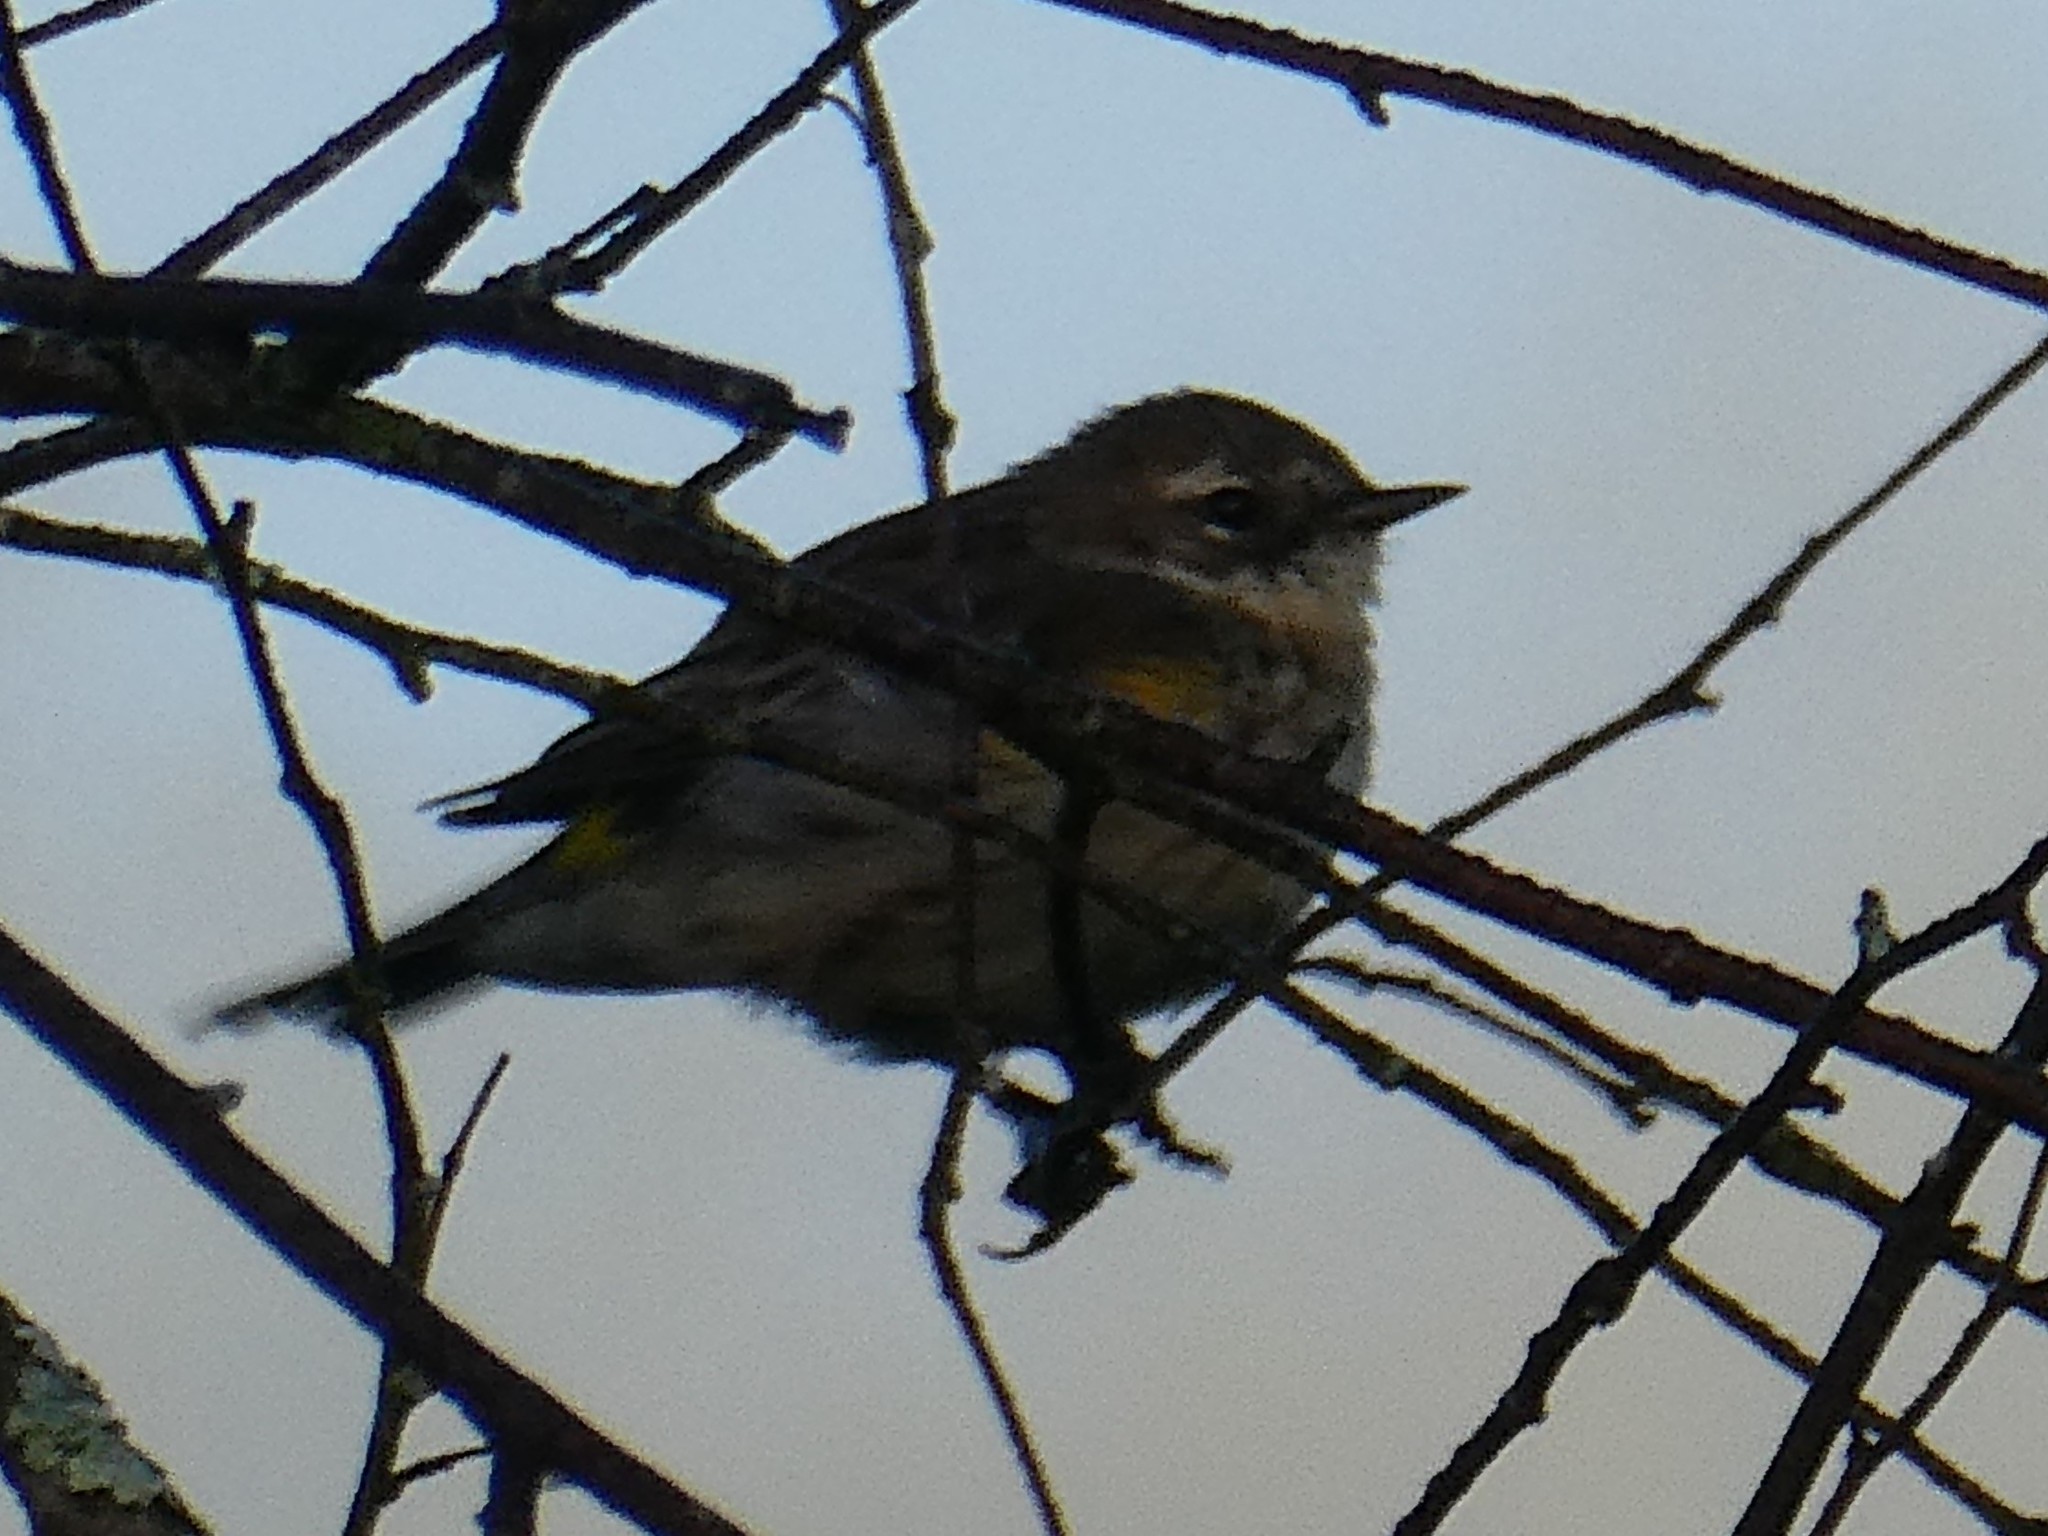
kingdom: Animalia
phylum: Chordata
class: Aves
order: Passeriformes
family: Parulidae
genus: Setophaga
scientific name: Setophaga coronata
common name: Myrtle warbler
